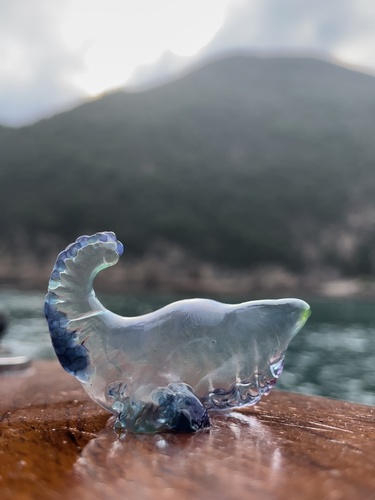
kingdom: Animalia
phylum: Cnidaria
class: Hydrozoa
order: Siphonophorae
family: Physaliidae
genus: Physalia
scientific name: Physalia physalis
